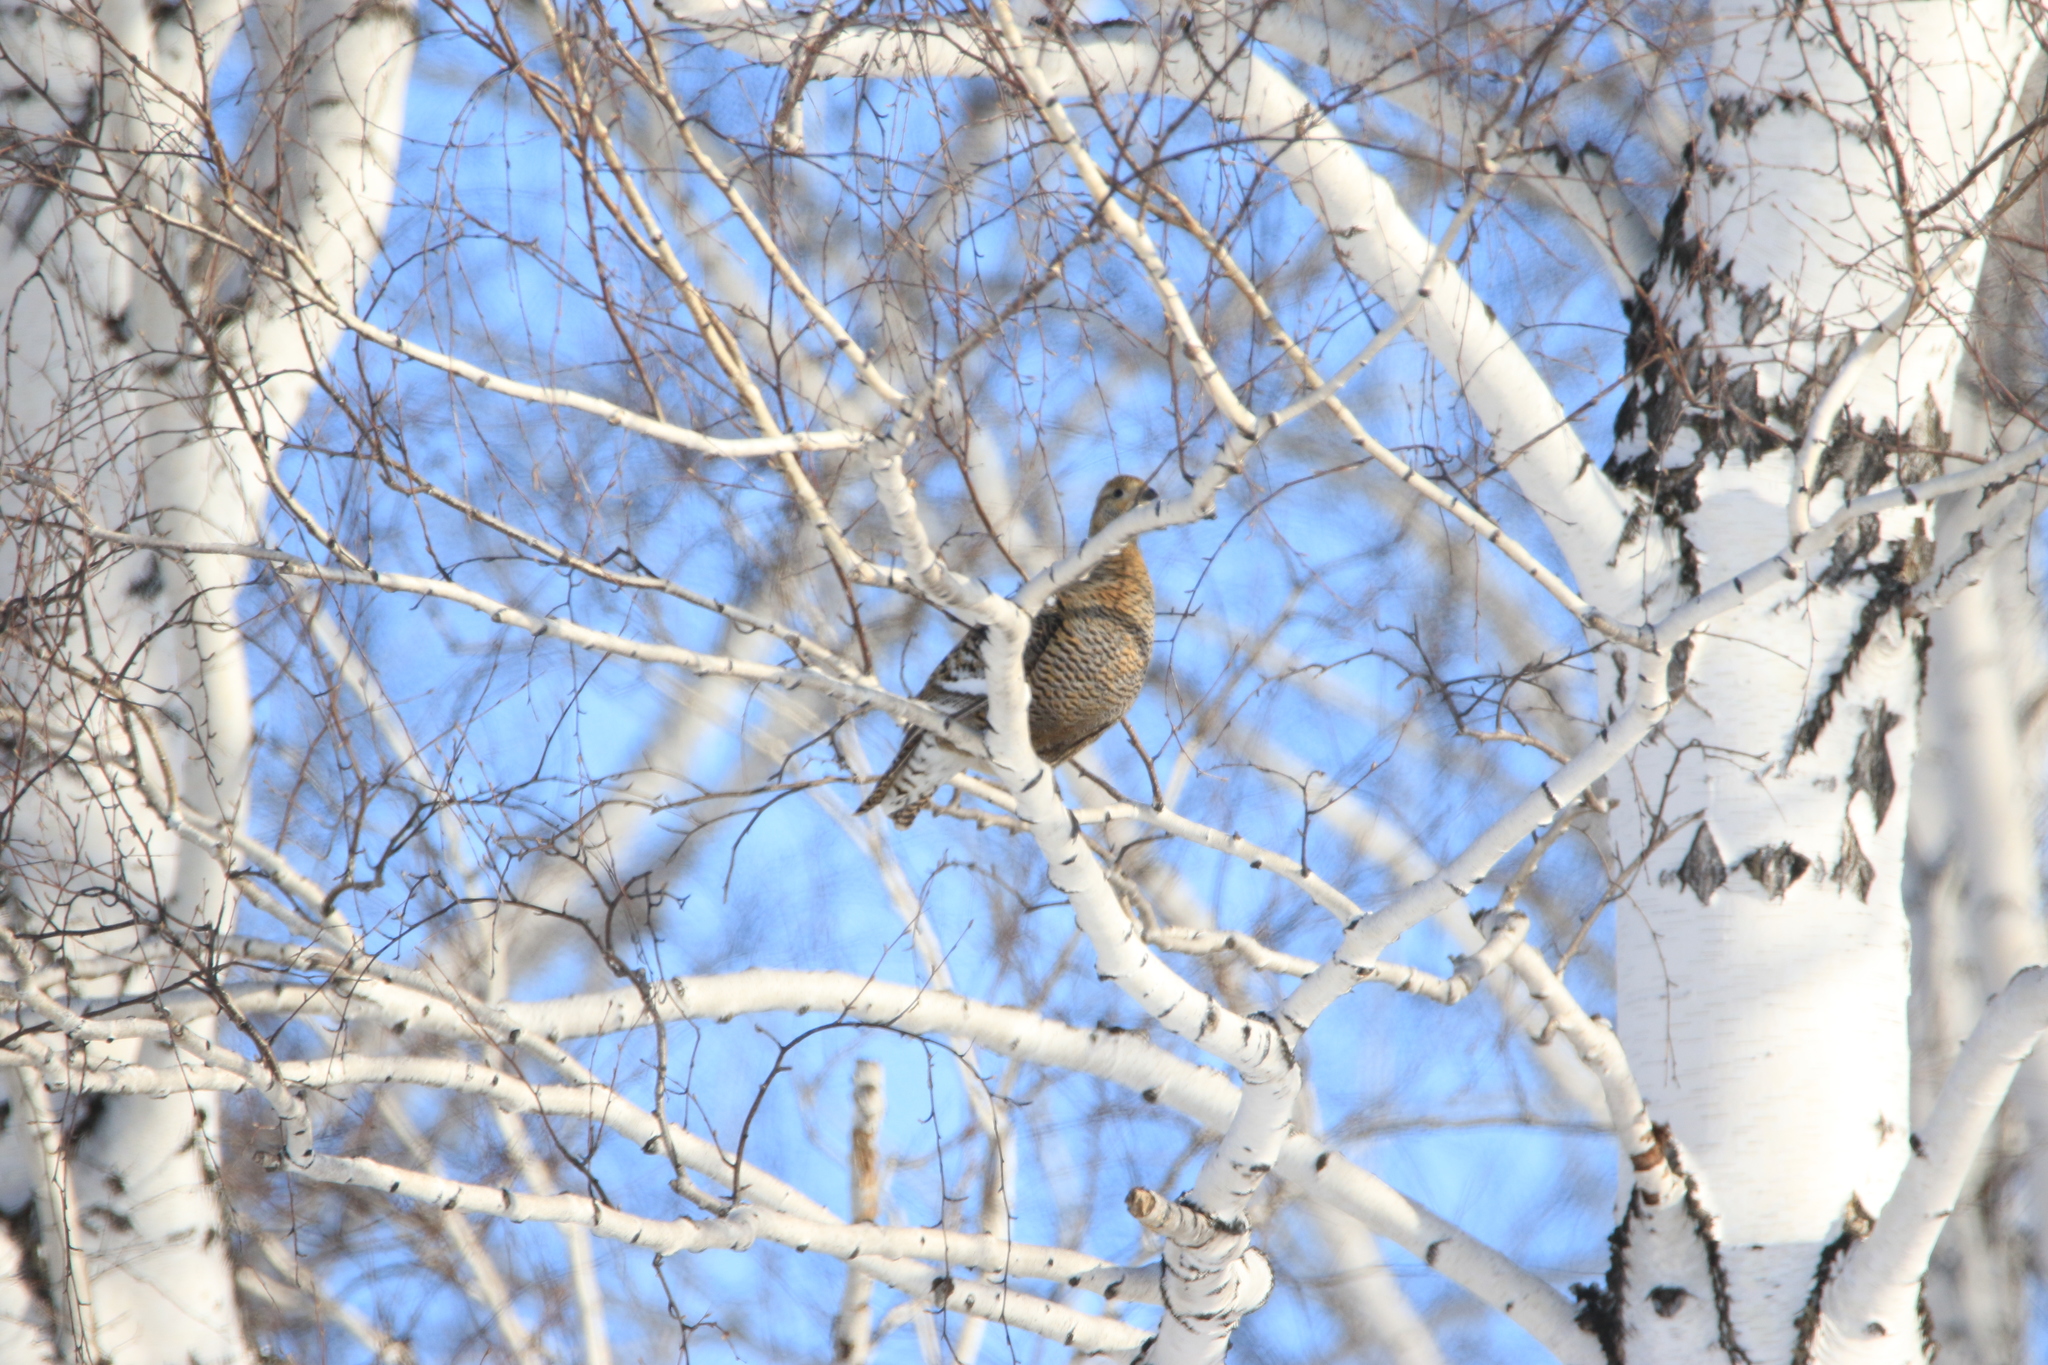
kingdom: Animalia
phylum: Chordata
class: Aves
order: Galliformes
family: Phasianidae
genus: Lyrurus
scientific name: Lyrurus tetrix
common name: Black grouse
